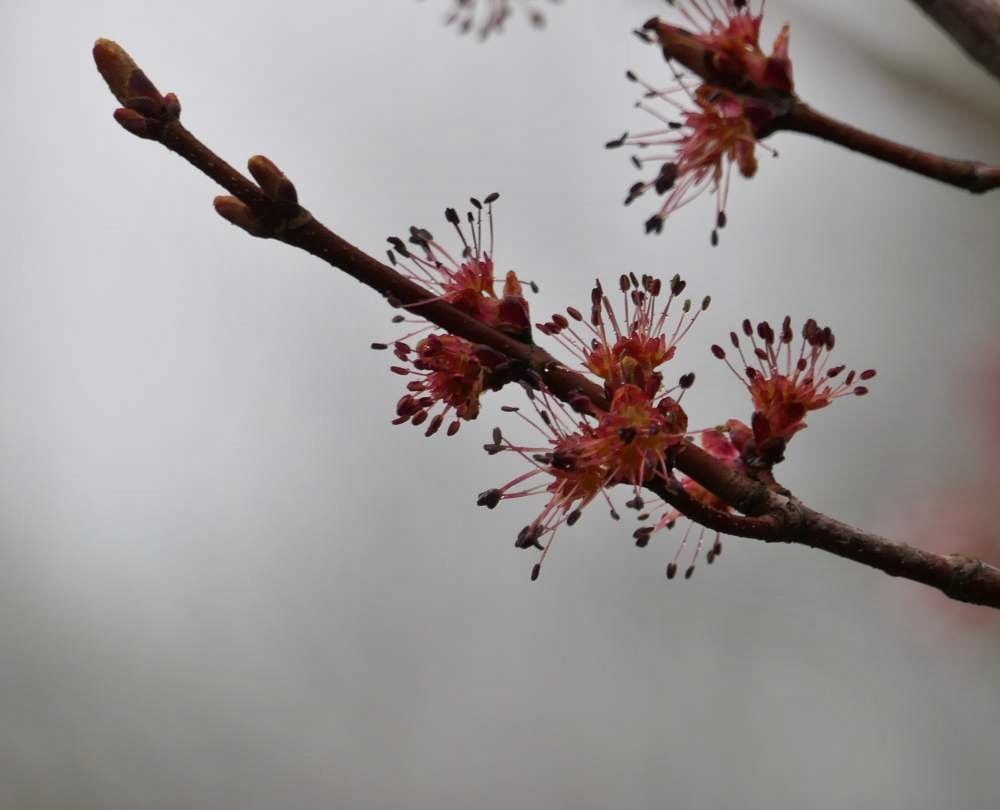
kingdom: Plantae
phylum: Tracheophyta
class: Magnoliopsida
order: Sapindales
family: Sapindaceae
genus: Acer
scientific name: Acer rubrum
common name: Red maple
